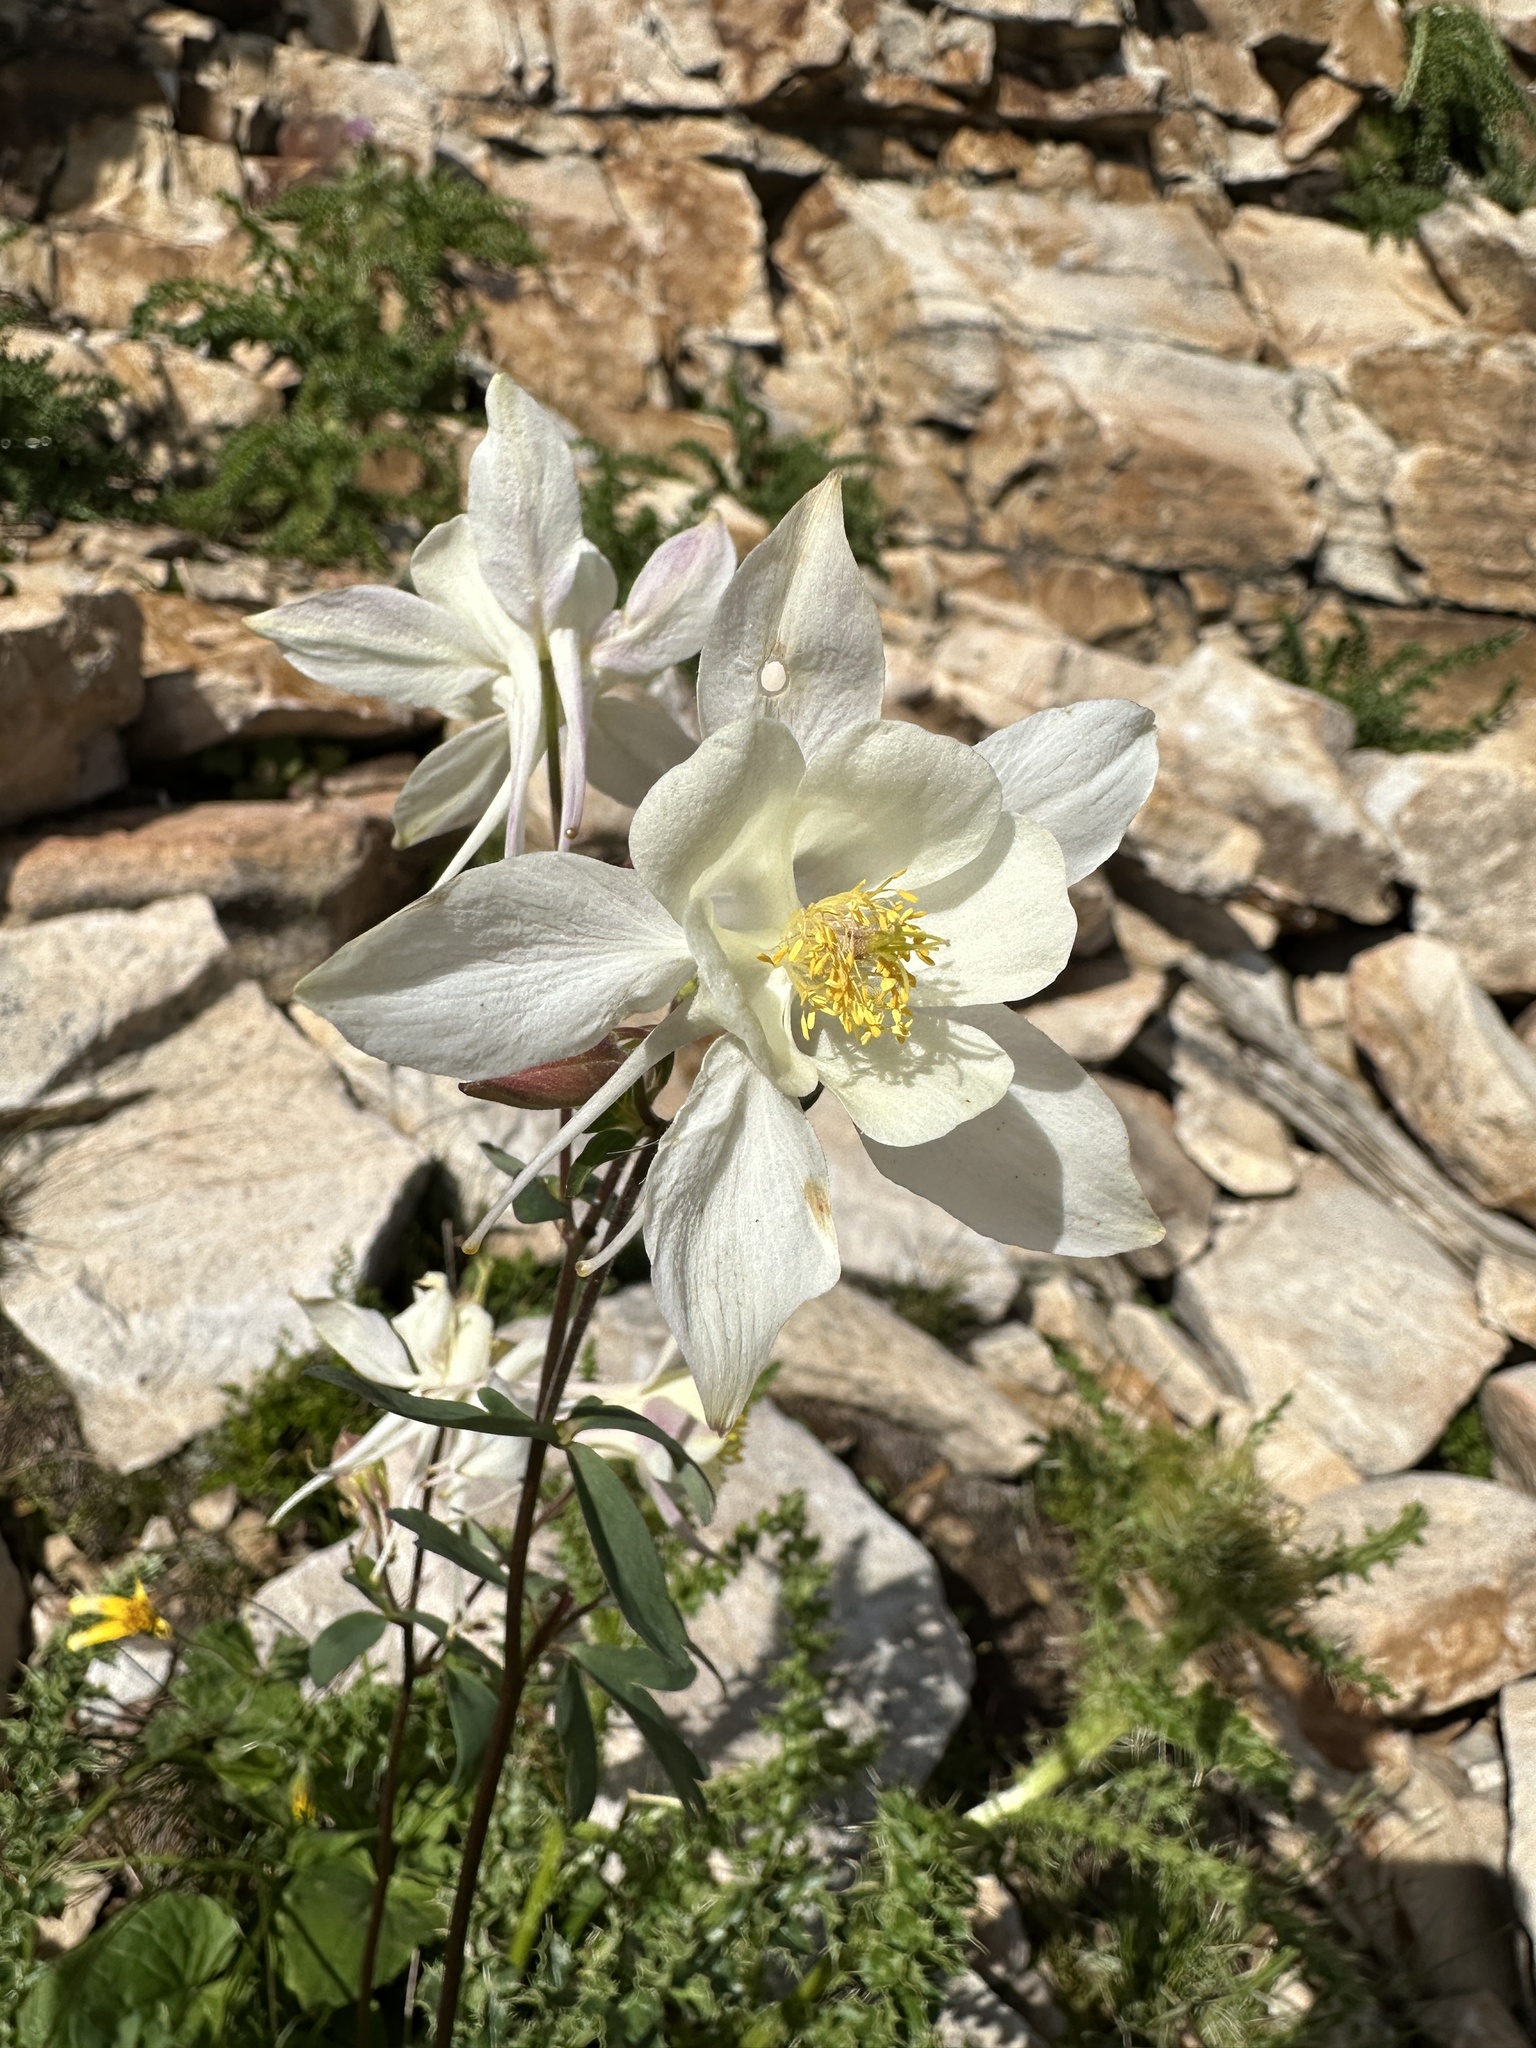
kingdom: Plantae
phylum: Tracheophyta
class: Magnoliopsida
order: Ranunculales
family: Ranunculaceae
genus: Aquilegia
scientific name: Aquilegia coerulea
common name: Rocky mountain columbine
